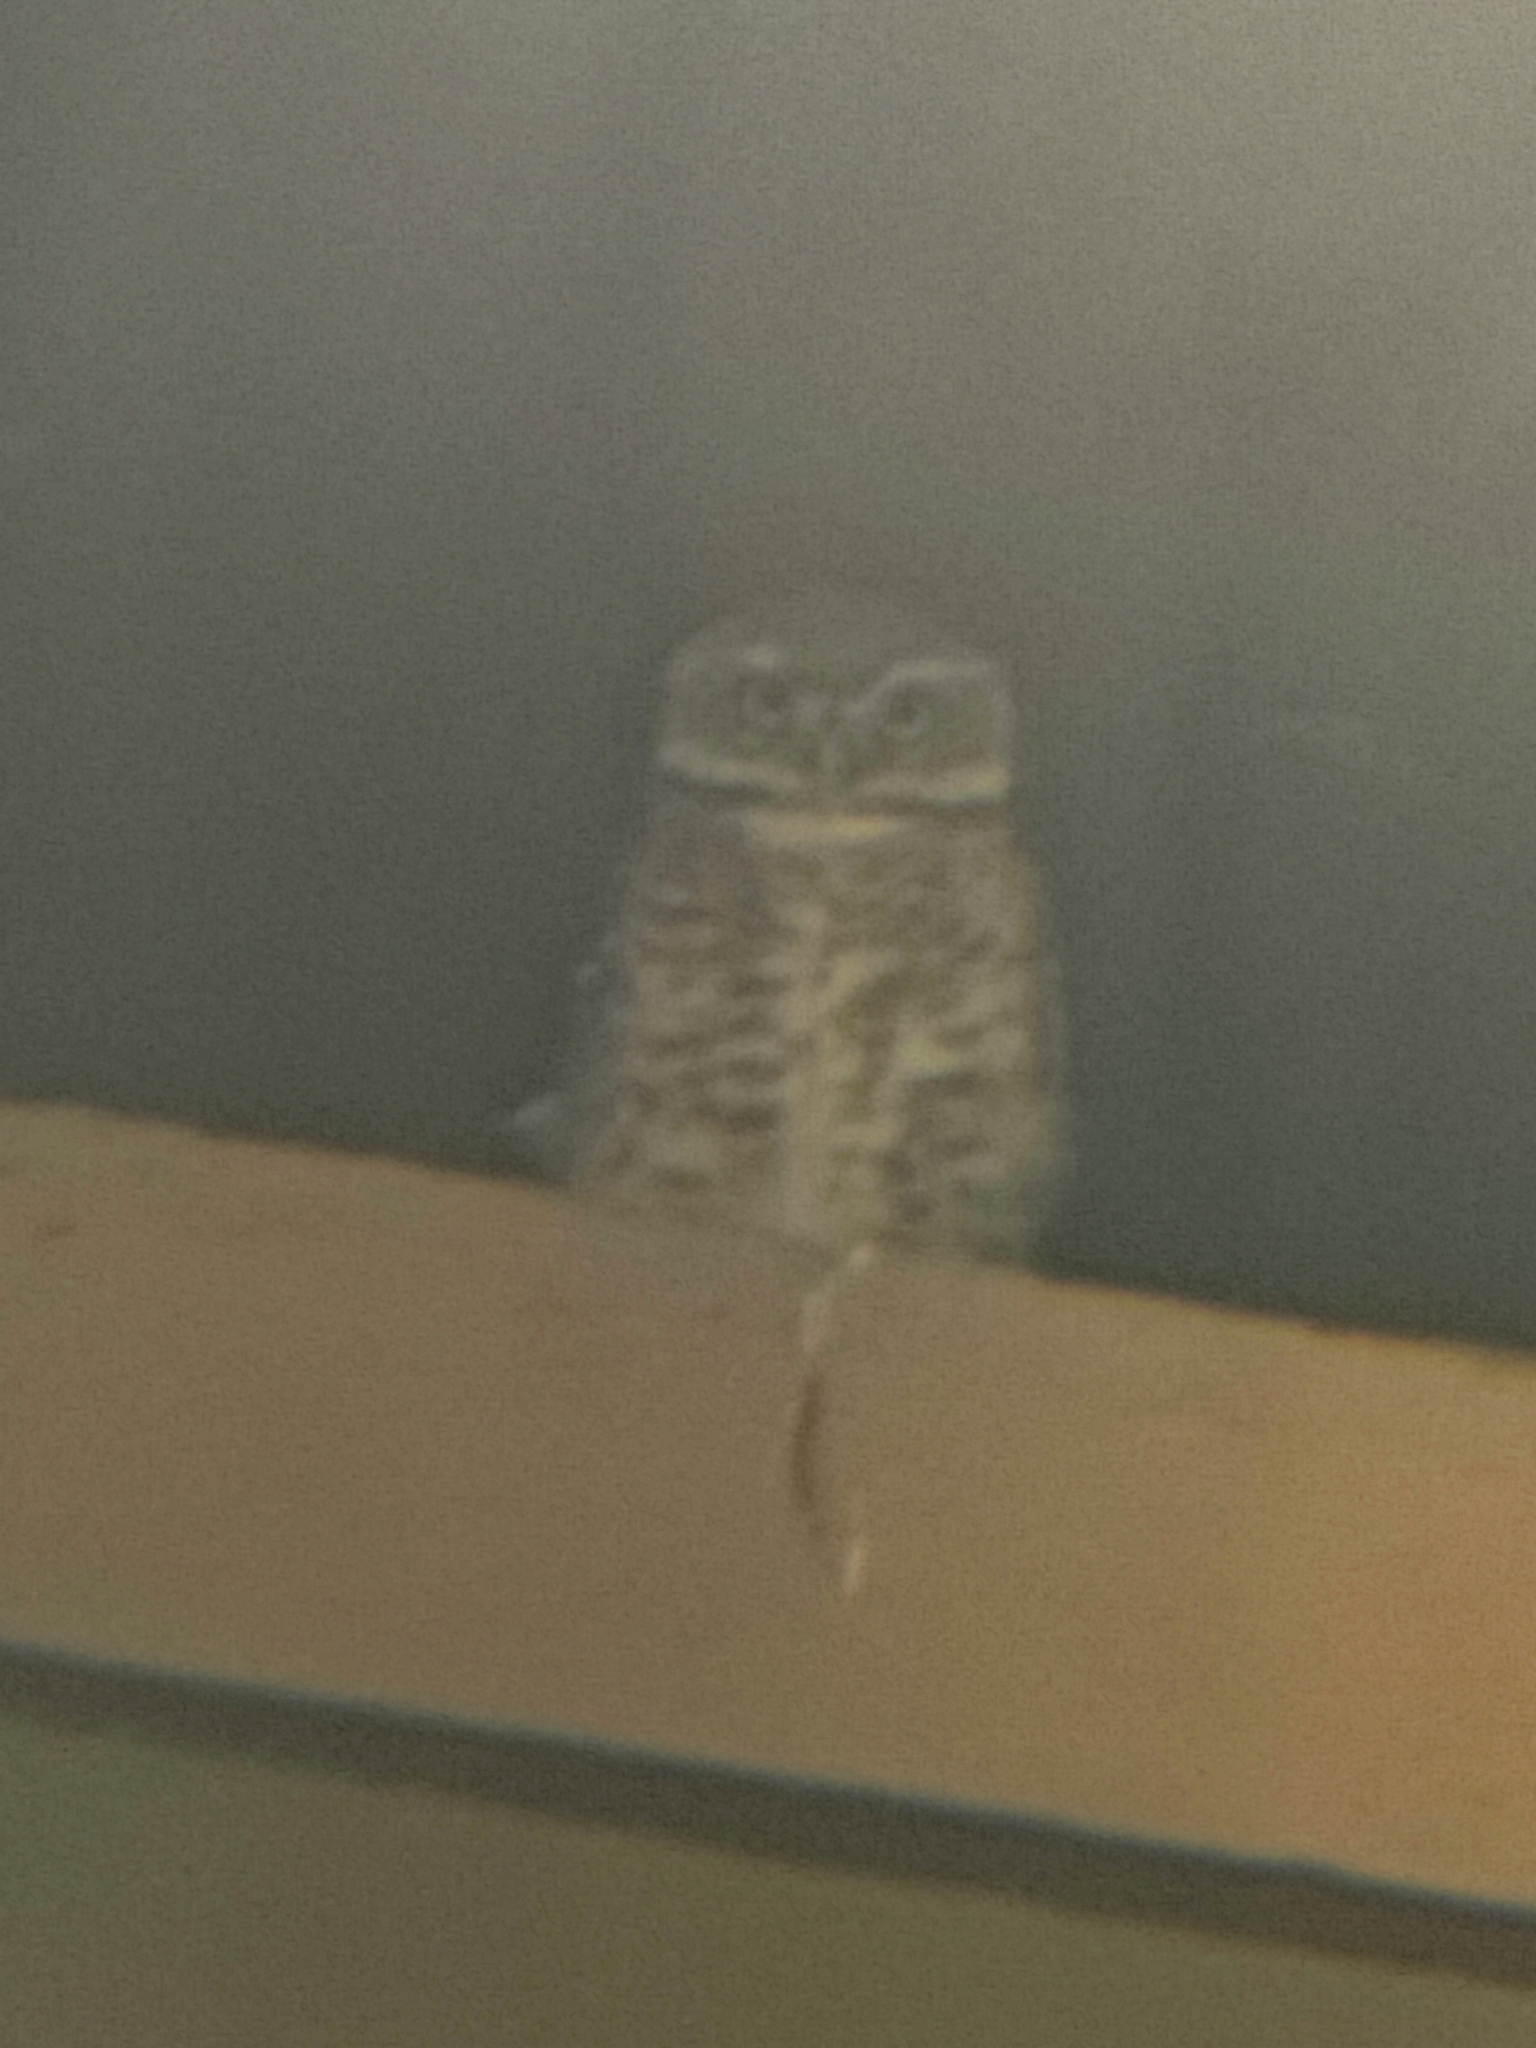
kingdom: Animalia
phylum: Chordata
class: Aves
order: Strigiformes
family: Strigidae
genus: Athene
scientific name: Athene brama
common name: Spotted owlet
